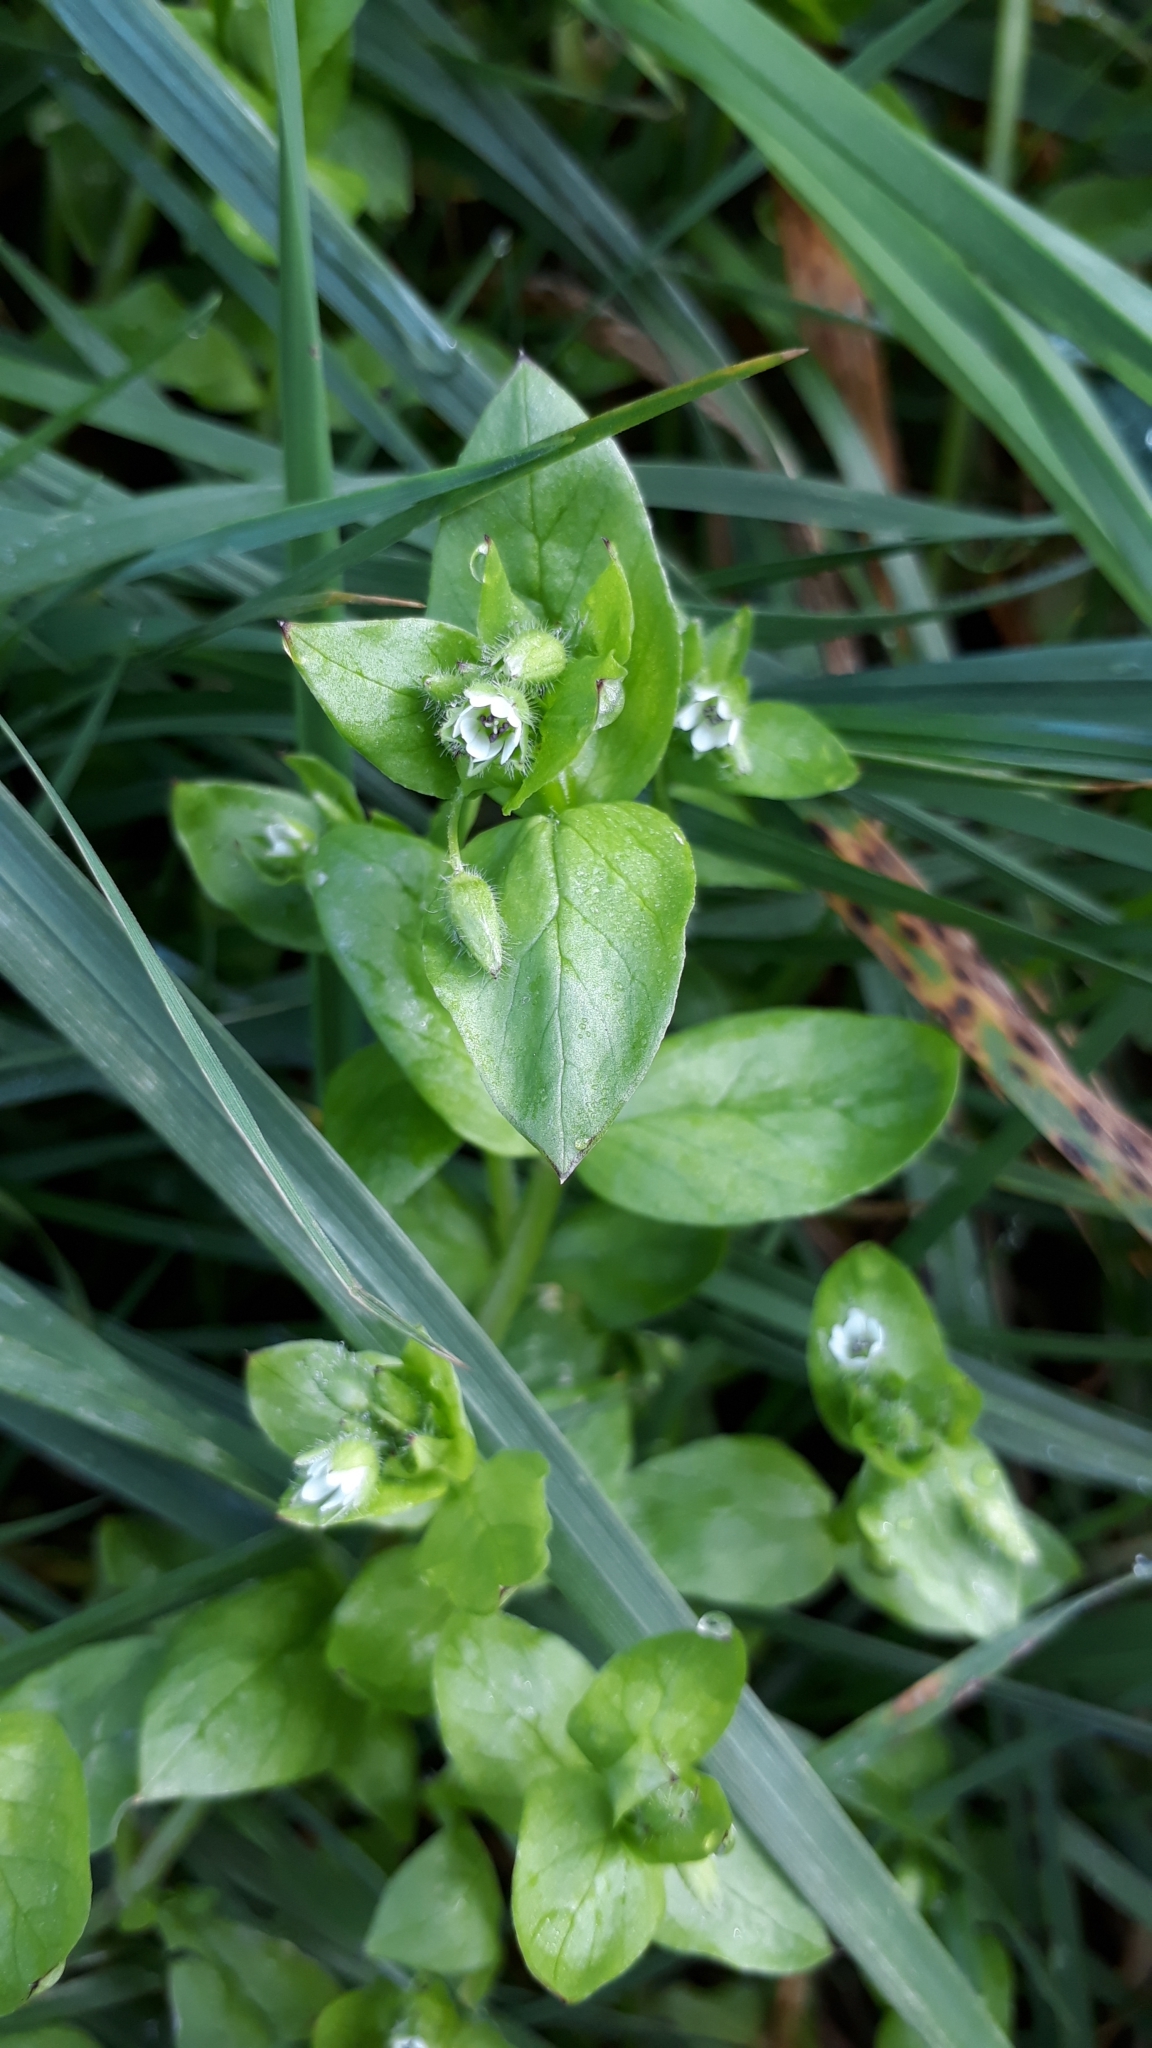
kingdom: Plantae
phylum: Tracheophyta
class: Magnoliopsida
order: Caryophyllales
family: Caryophyllaceae
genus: Stellaria
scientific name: Stellaria media
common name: Common chickweed
